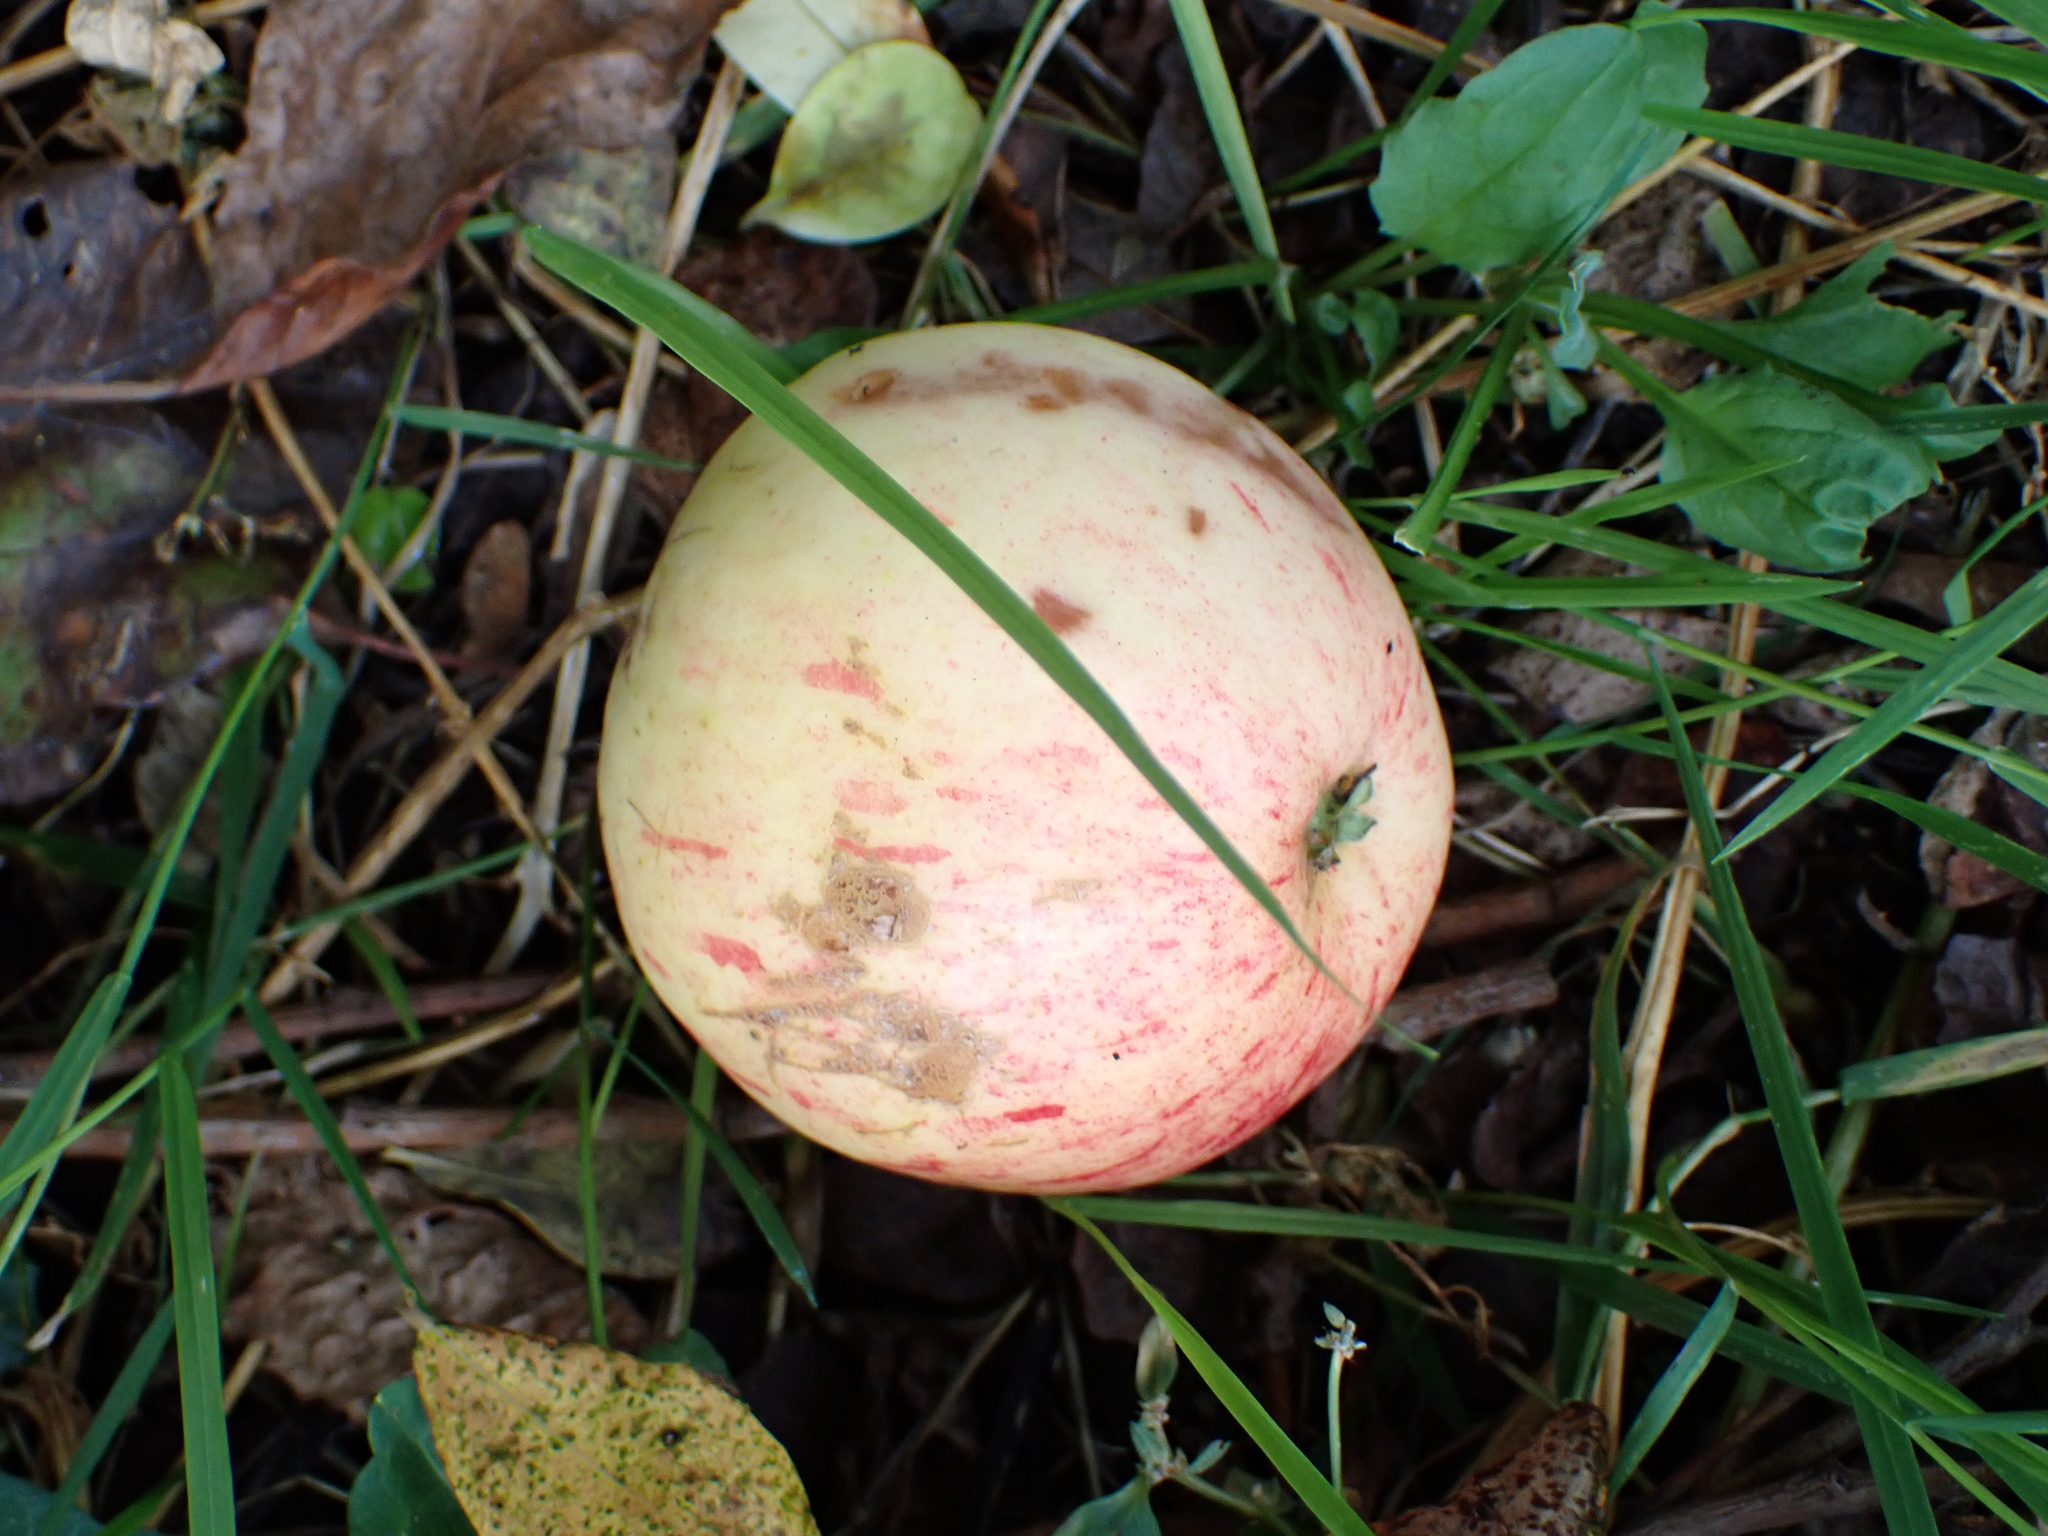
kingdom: Plantae
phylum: Tracheophyta
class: Magnoliopsida
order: Rosales
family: Rosaceae
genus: Malus
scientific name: Malus domestica
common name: Apple
